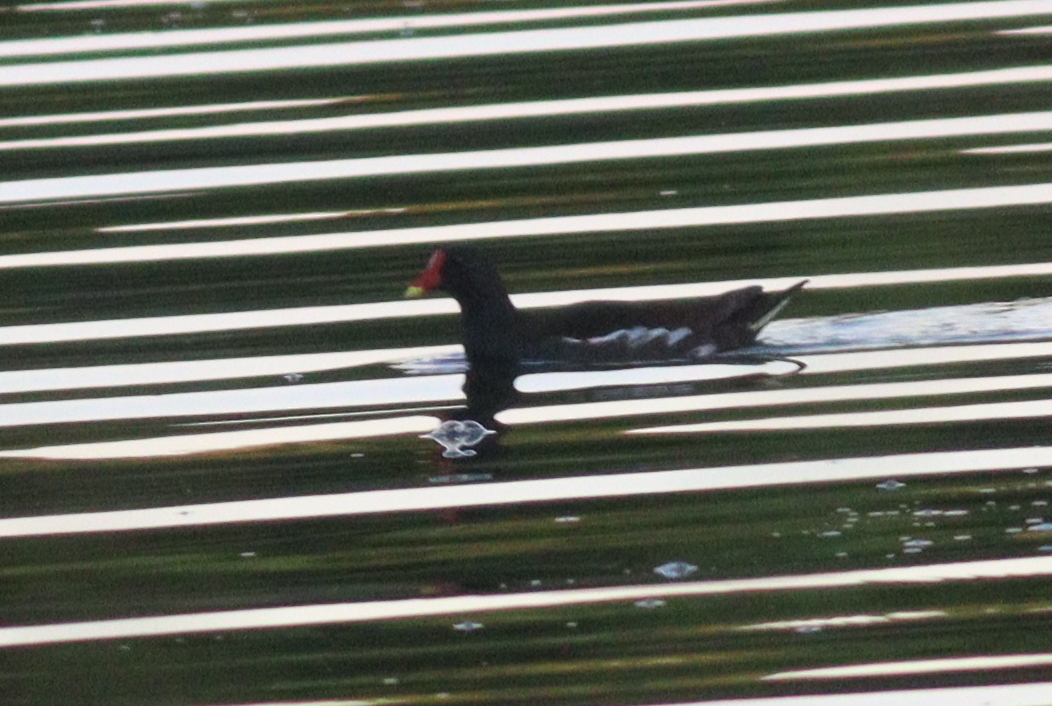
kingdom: Animalia
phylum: Chordata
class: Aves
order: Gruiformes
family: Rallidae
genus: Gallinula
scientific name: Gallinula chloropus
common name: Common moorhen
